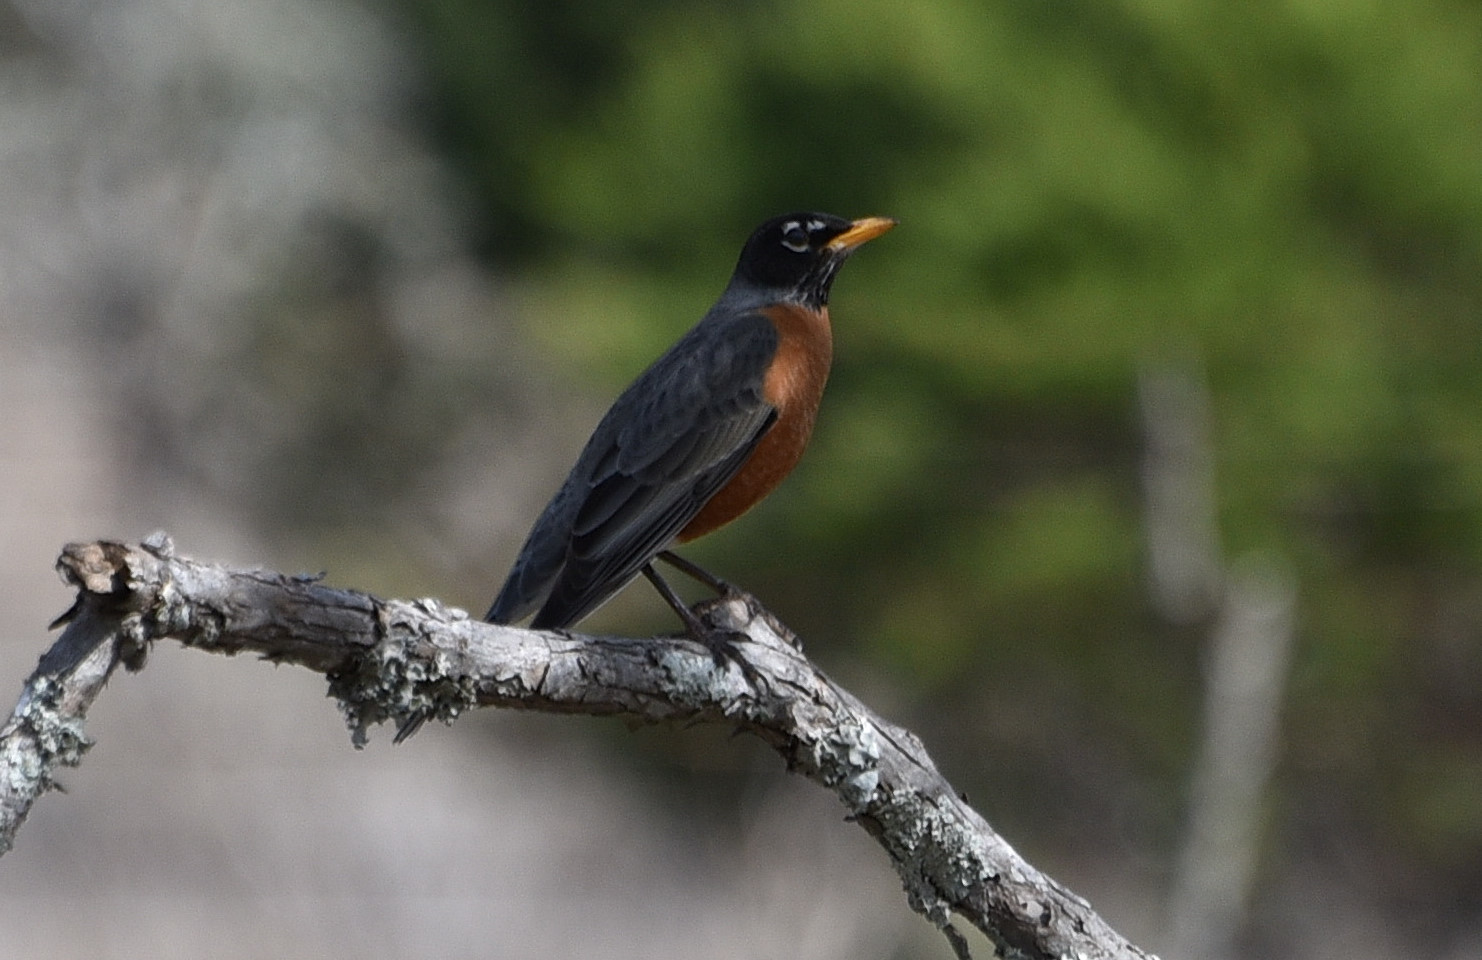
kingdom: Animalia
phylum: Chordata
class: Aves
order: Passeriformes
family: Turdidae
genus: Turdus
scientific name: Turdus migratorius
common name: American robin
